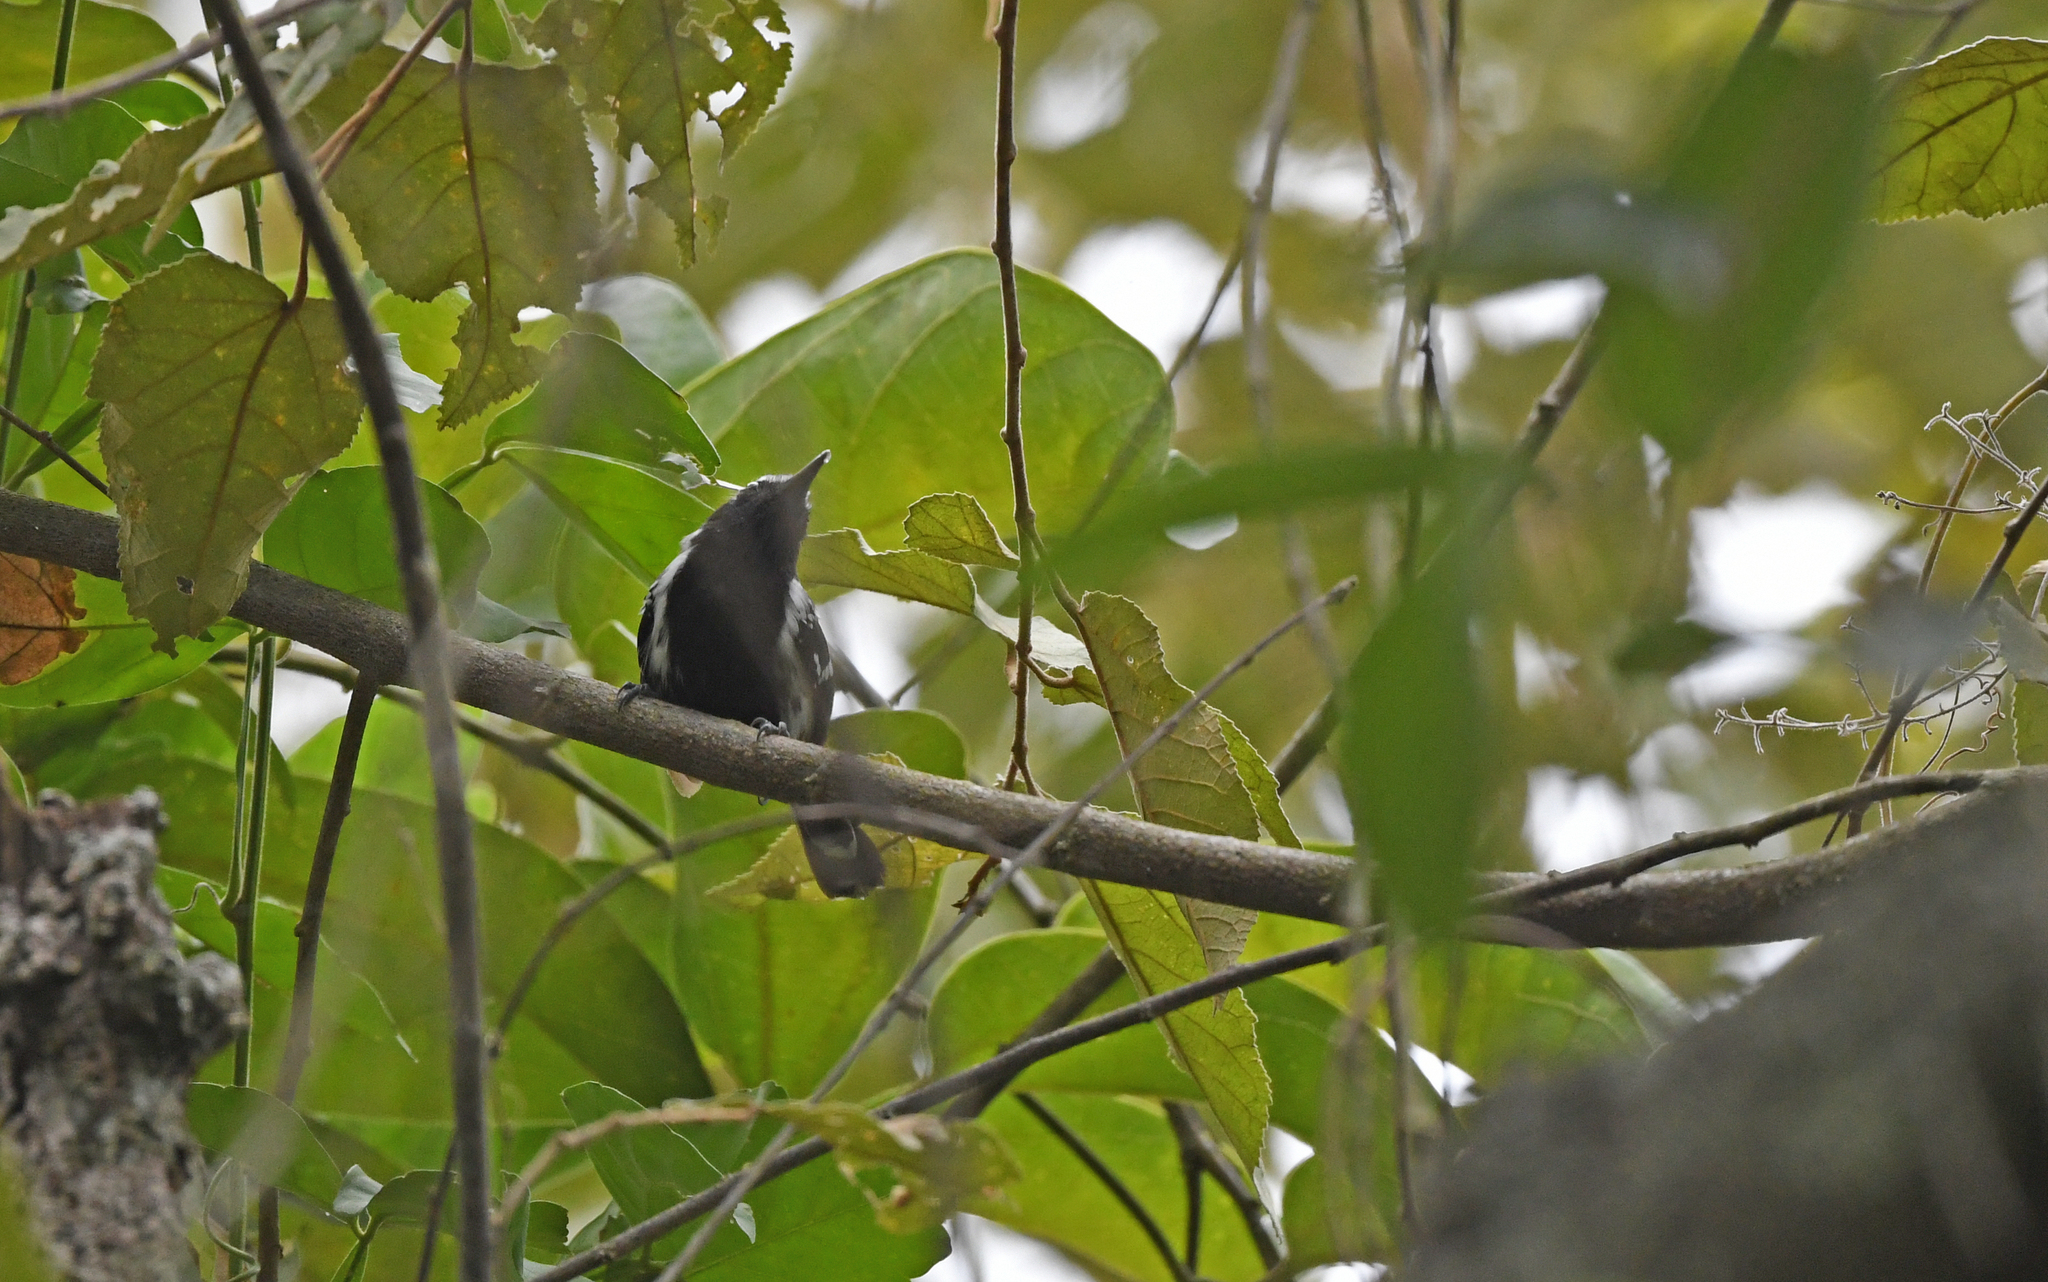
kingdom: Animalia
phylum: Chordata
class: Aves
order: Passeriformes
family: Thamnophilidae
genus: Formicivora
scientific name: Formicivora intermedia
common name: Northern white-fringed antwren
